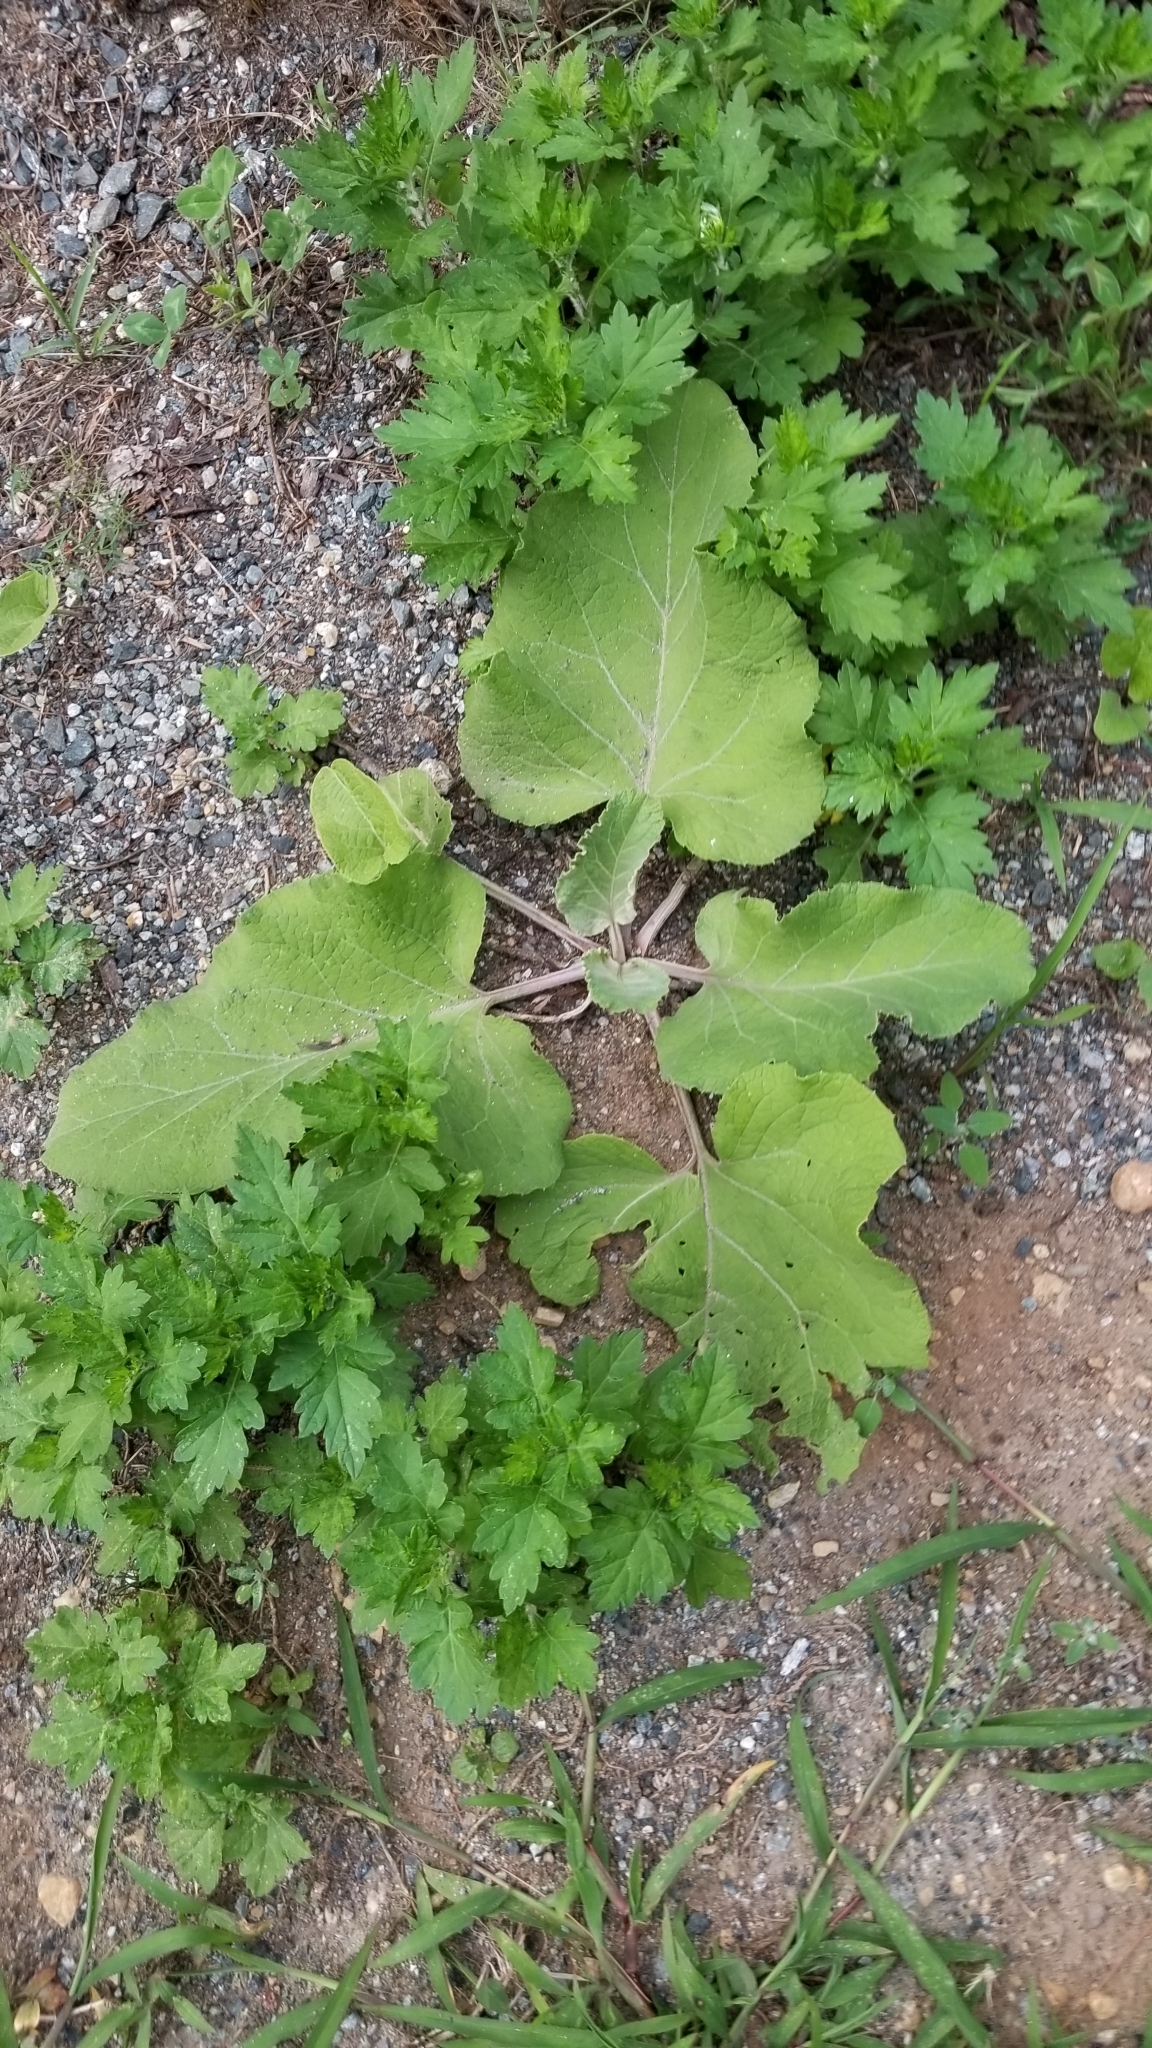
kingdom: Plantae
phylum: Tracheophyta
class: Magnoliopsida
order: Asterales
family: Asteraceae
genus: Arctium
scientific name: Arctium
